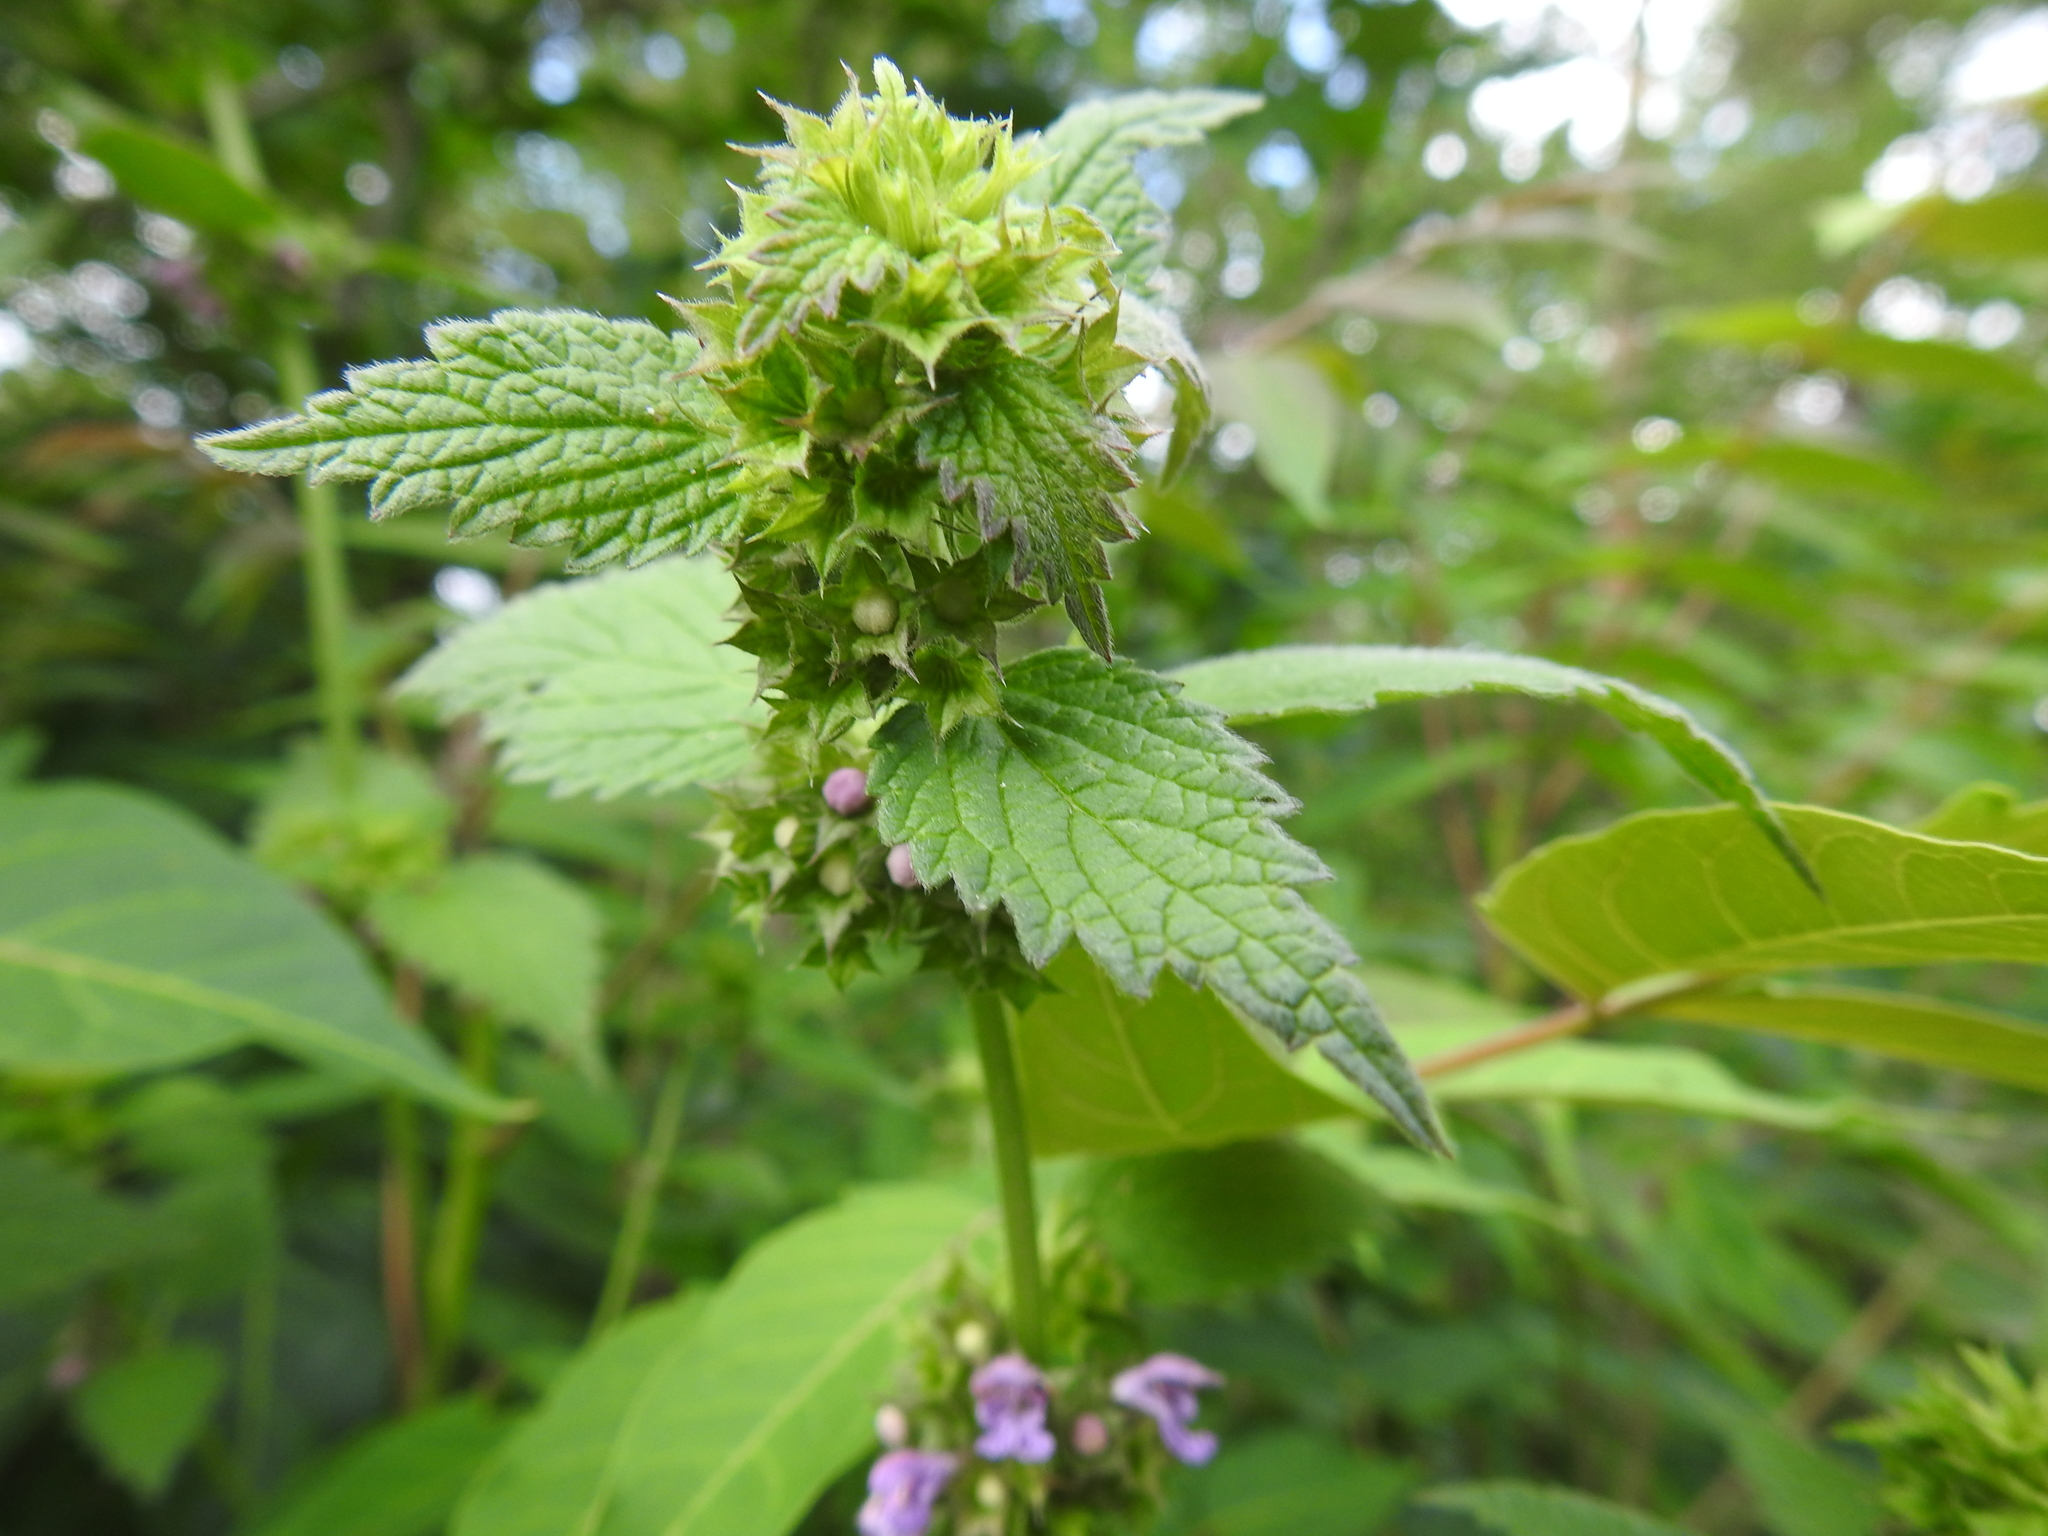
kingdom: Plantae
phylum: Tracheophyta
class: Magnoliopsida
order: Lamiales
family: Lamiaceae
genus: Ballota
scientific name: Ballota nigra
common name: Black horehound
